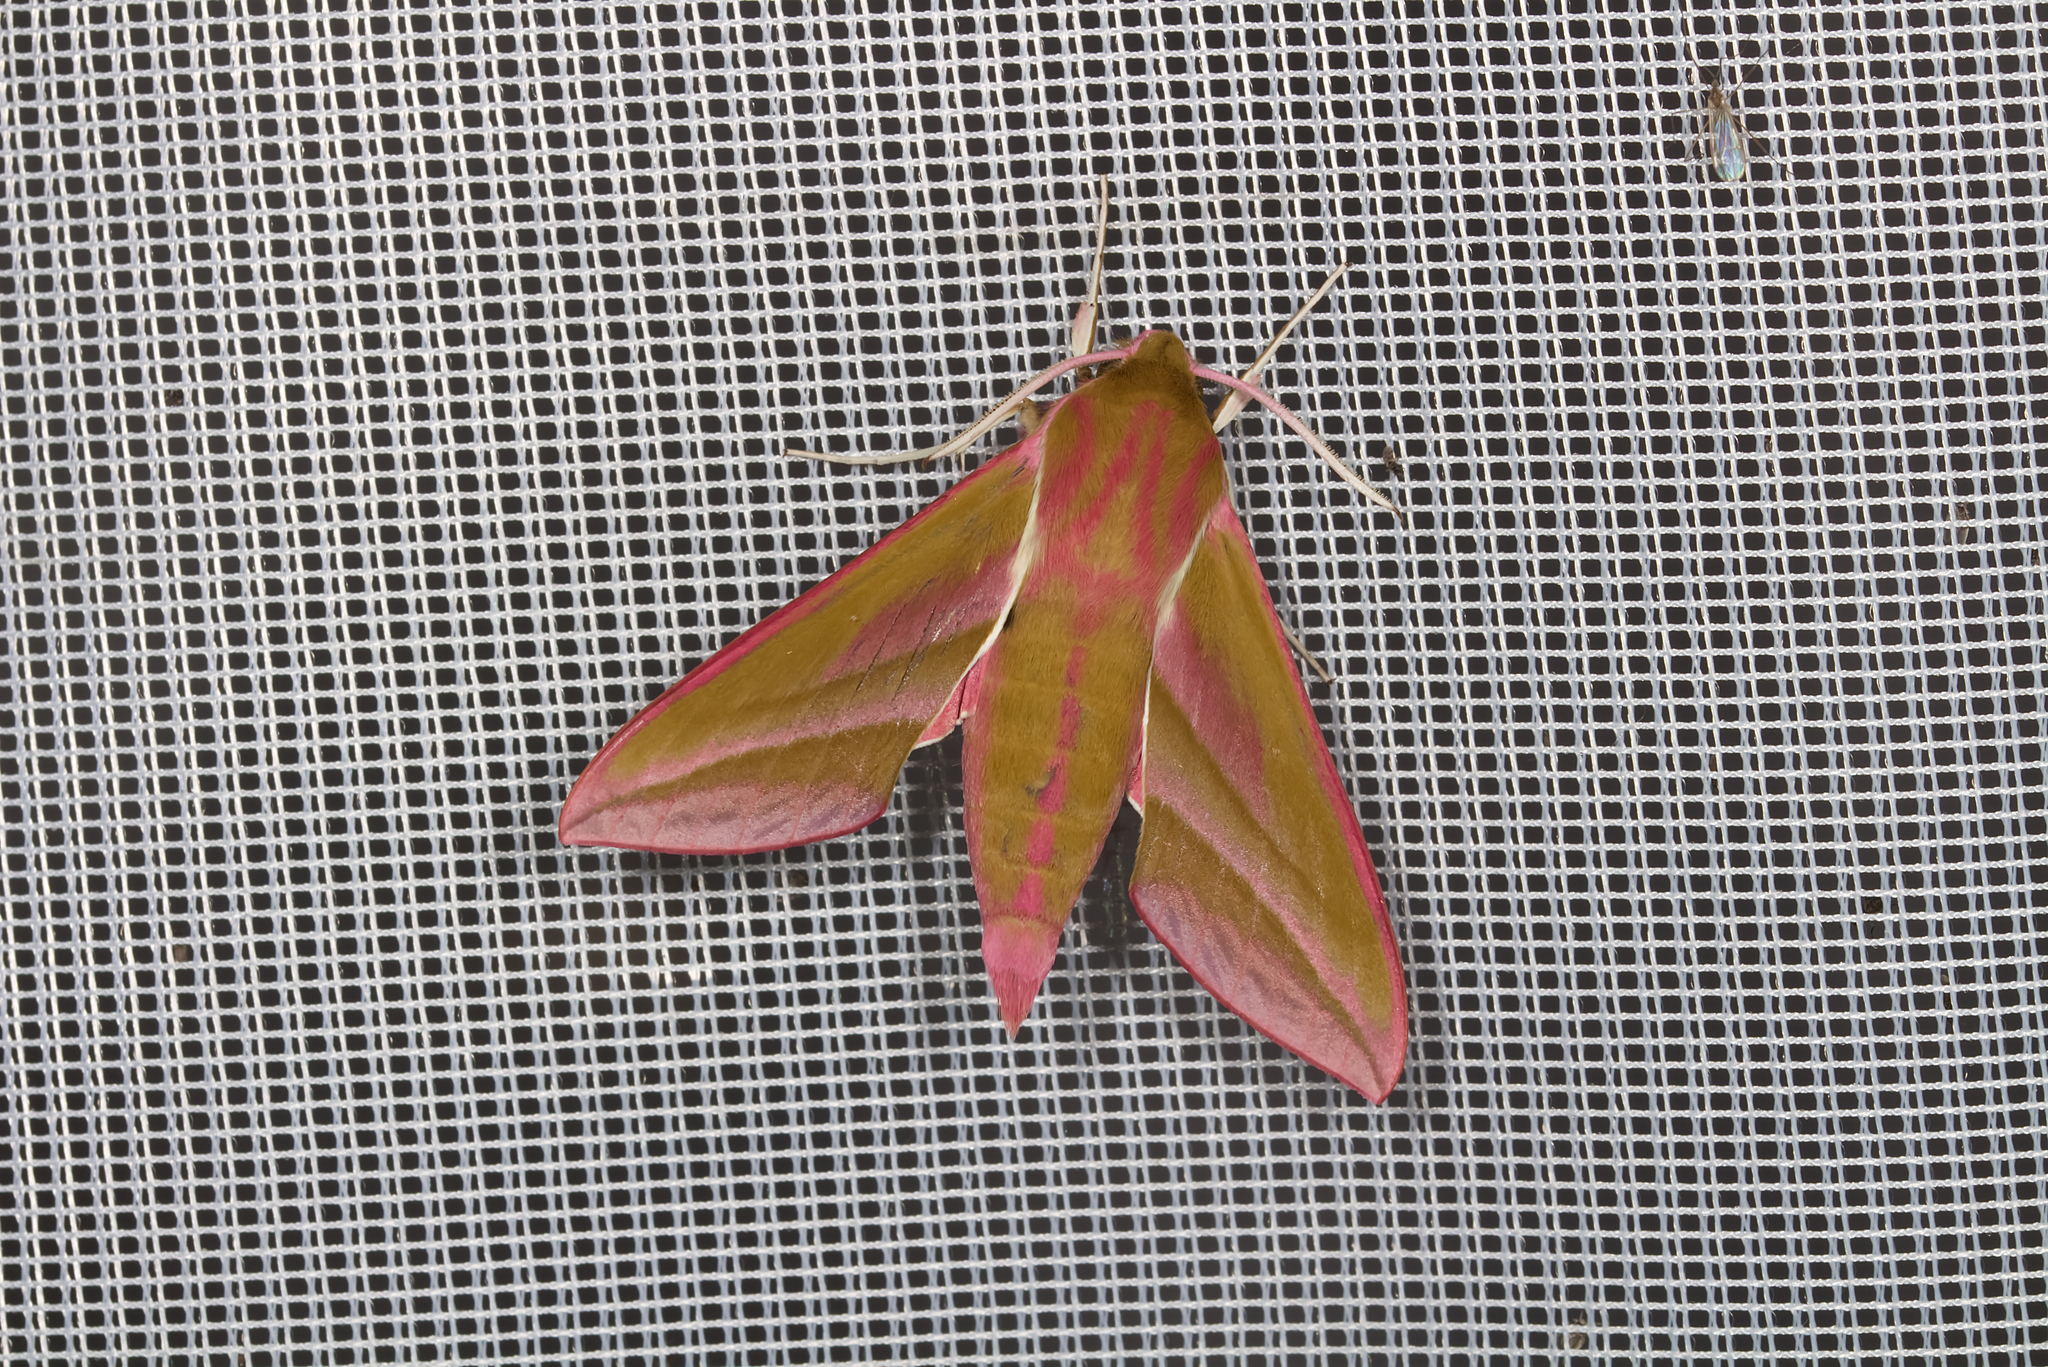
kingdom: Animalia
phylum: Arthropoda
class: Insecta
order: Lepidoptera
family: Sphingidae
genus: Deilephila
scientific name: Deilephila elpenor
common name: Elephant hawk-moth
